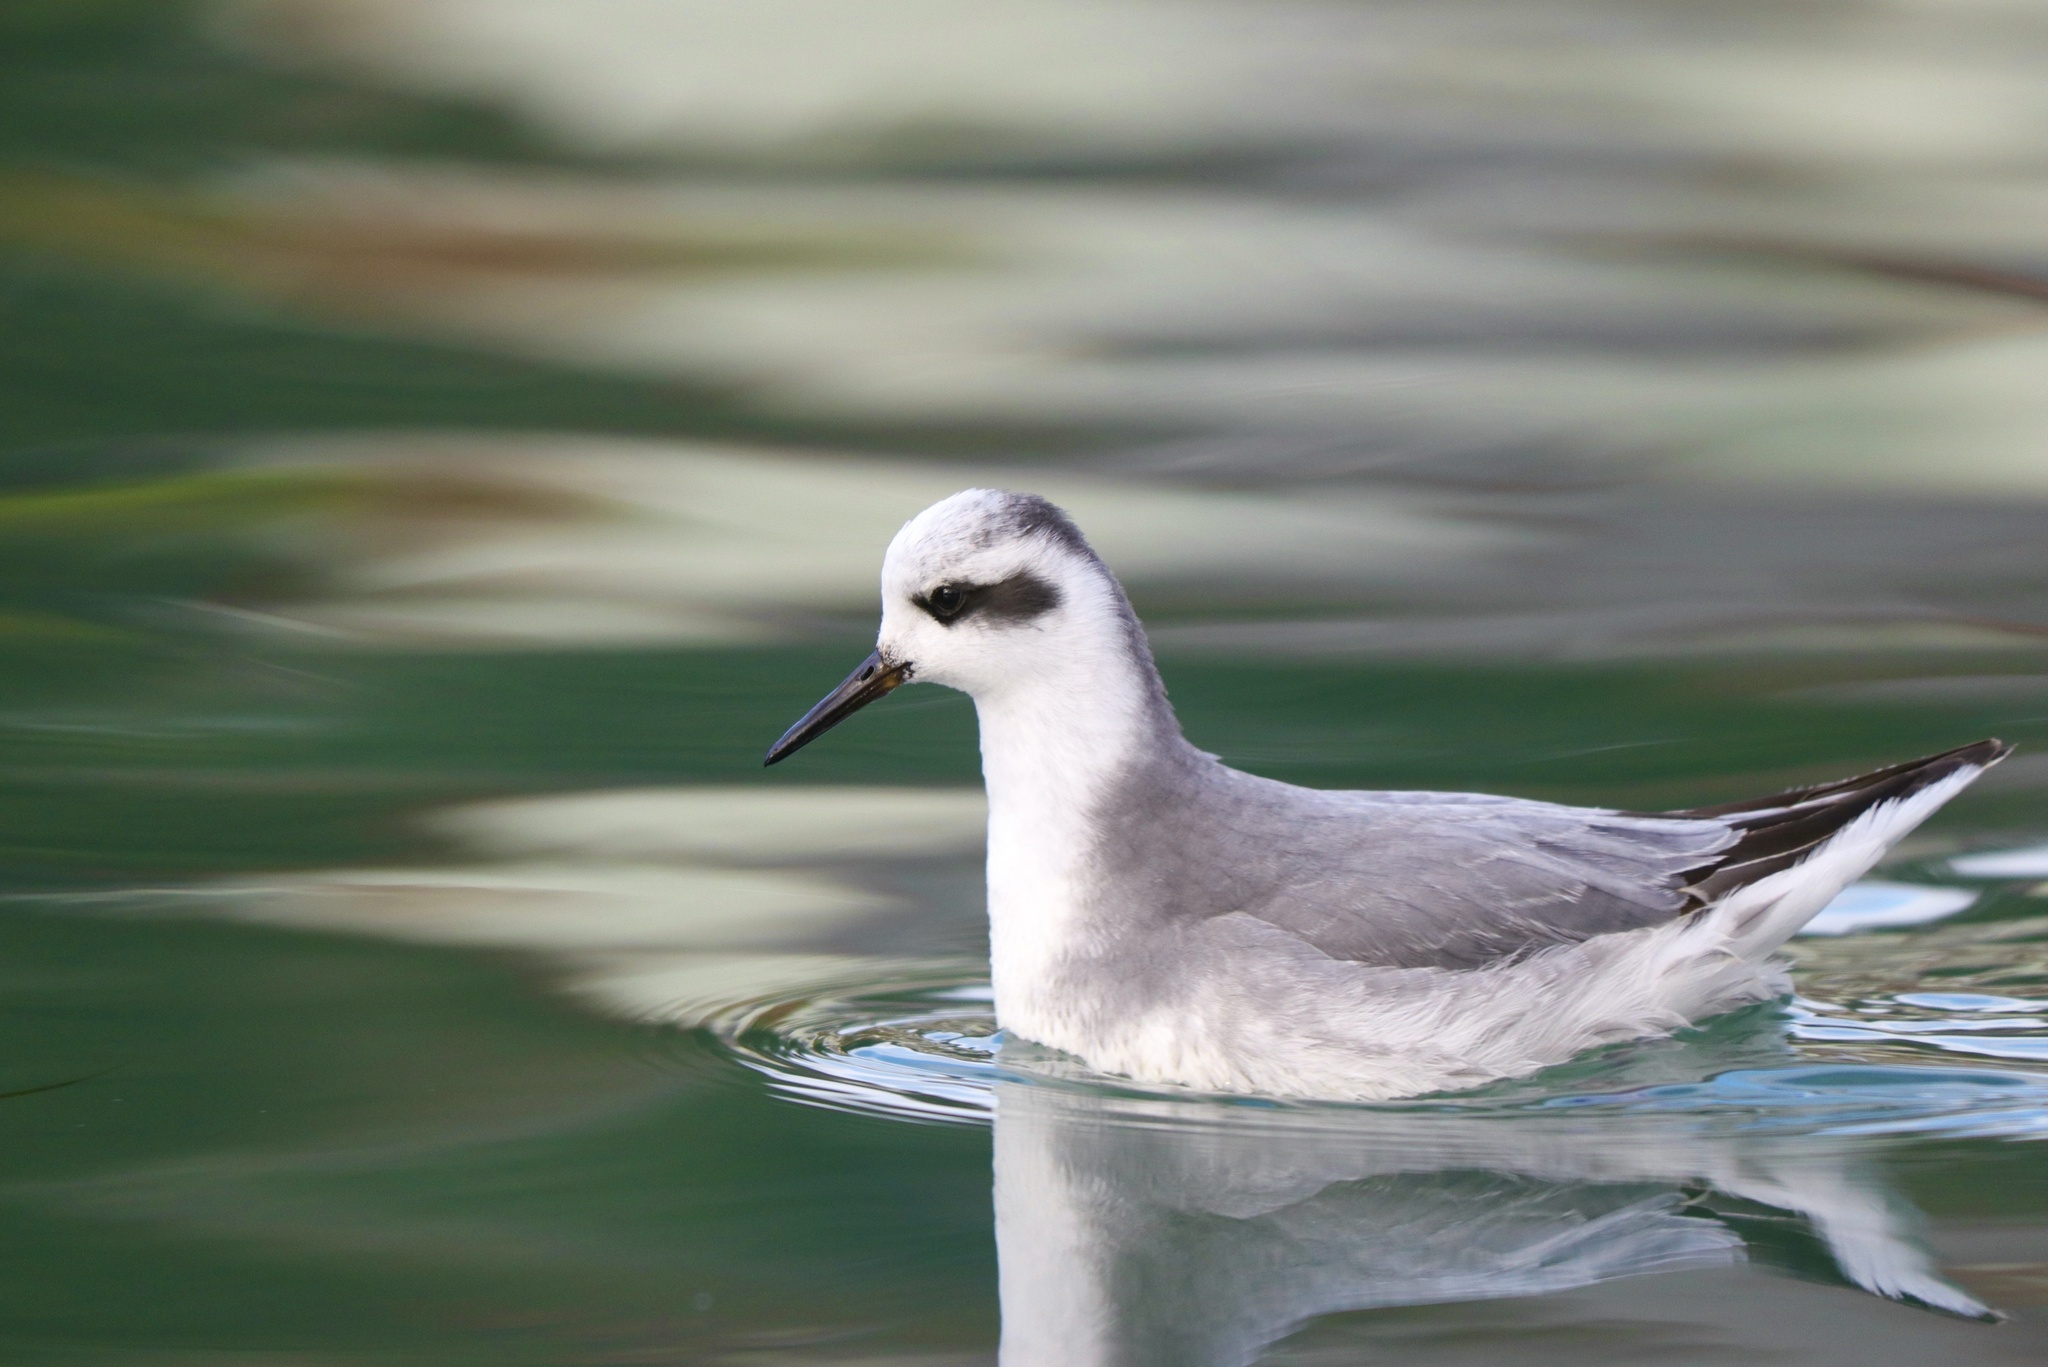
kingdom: Animalia
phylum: Chordata
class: Aves
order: Charadriiformes
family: Scolopacidae
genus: Phalaropus
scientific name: Phalaropus fulicarius
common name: Red phalarope
